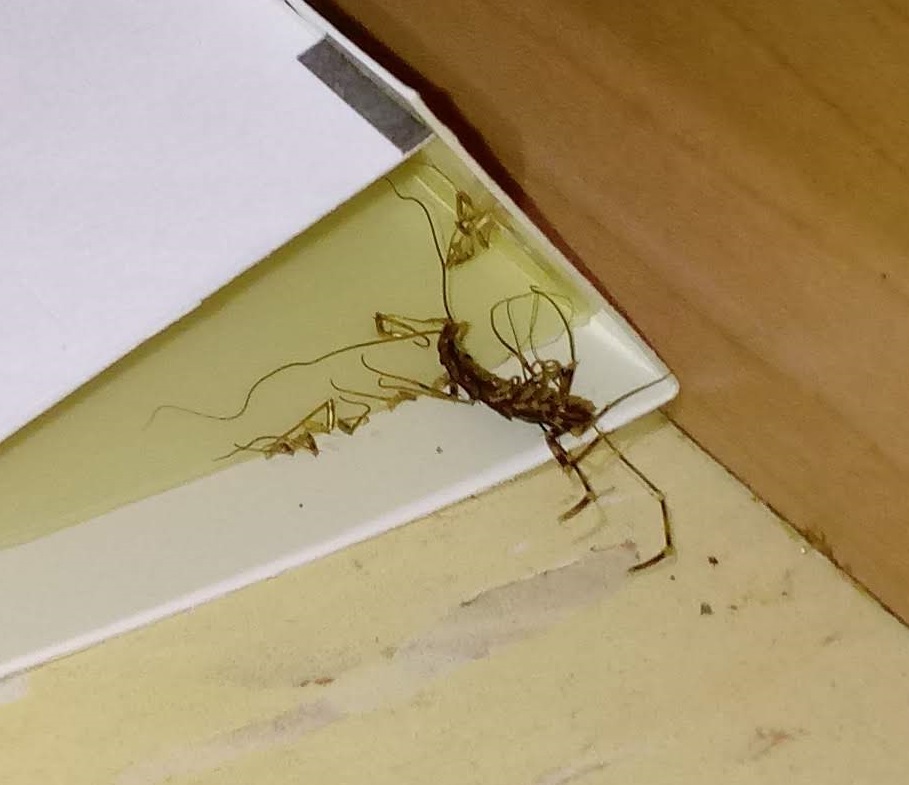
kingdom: Animalia
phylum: Arthropoda
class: Chilopoda
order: Scutigeromorpha
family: Scutigeridae
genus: Scutigera
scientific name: Scutigera coleoptrata
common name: House centipede
